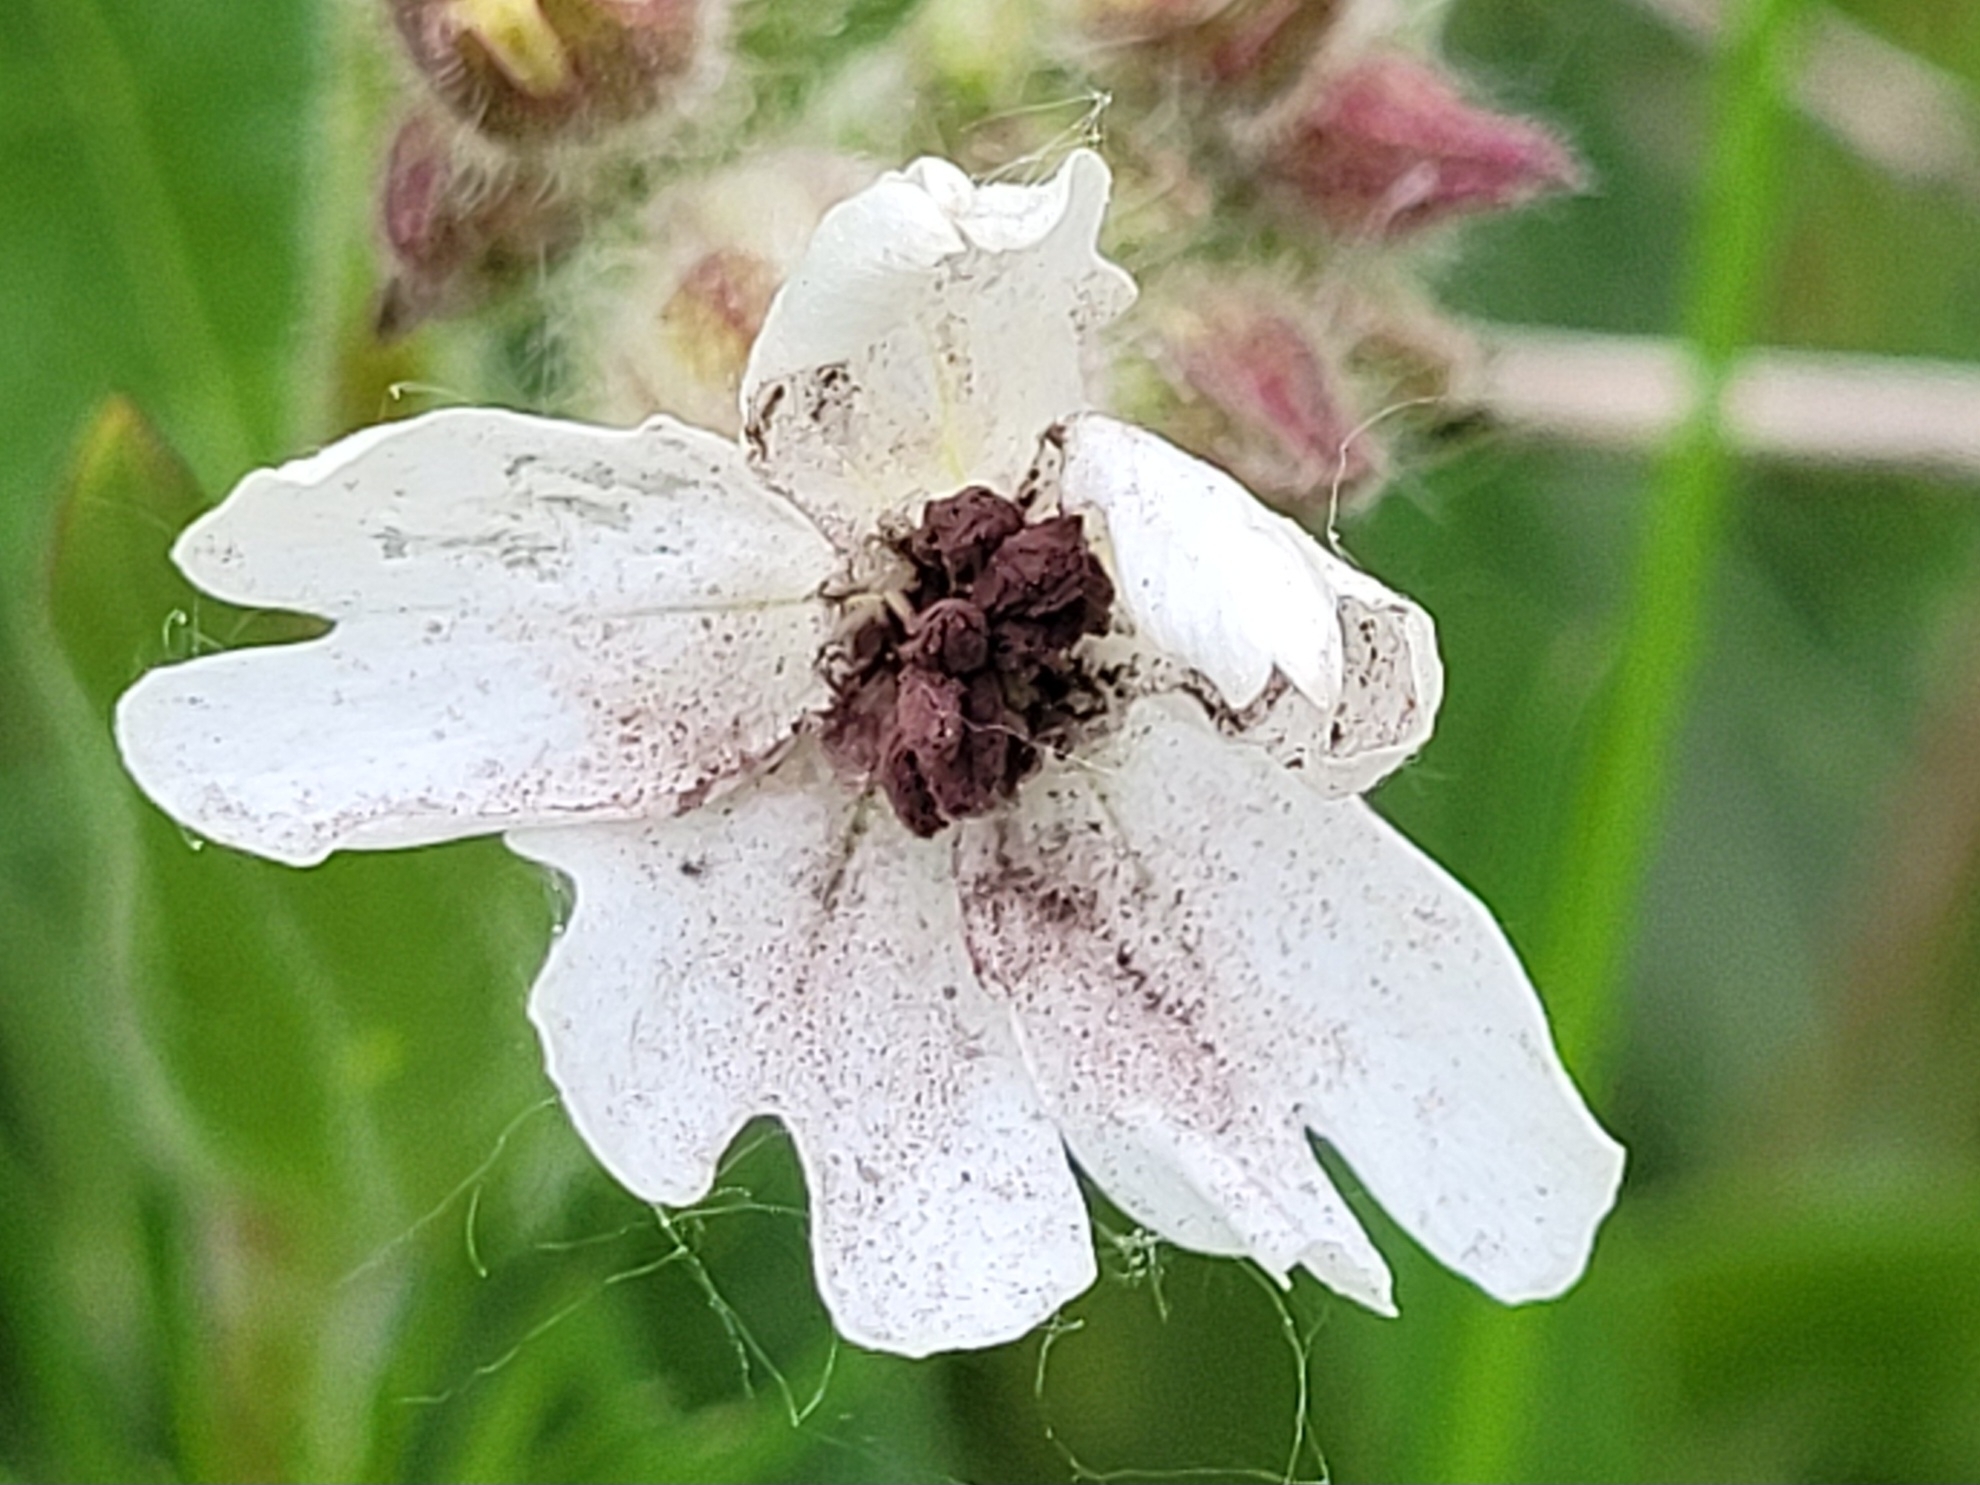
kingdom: Fungi
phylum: Basidiomycota
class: Microbotryomycetes
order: Microbotryales
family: Microbotryaceae
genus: Microbotryum
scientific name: Microbotryum lychnidis-dioicae
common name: Campion anther smut
